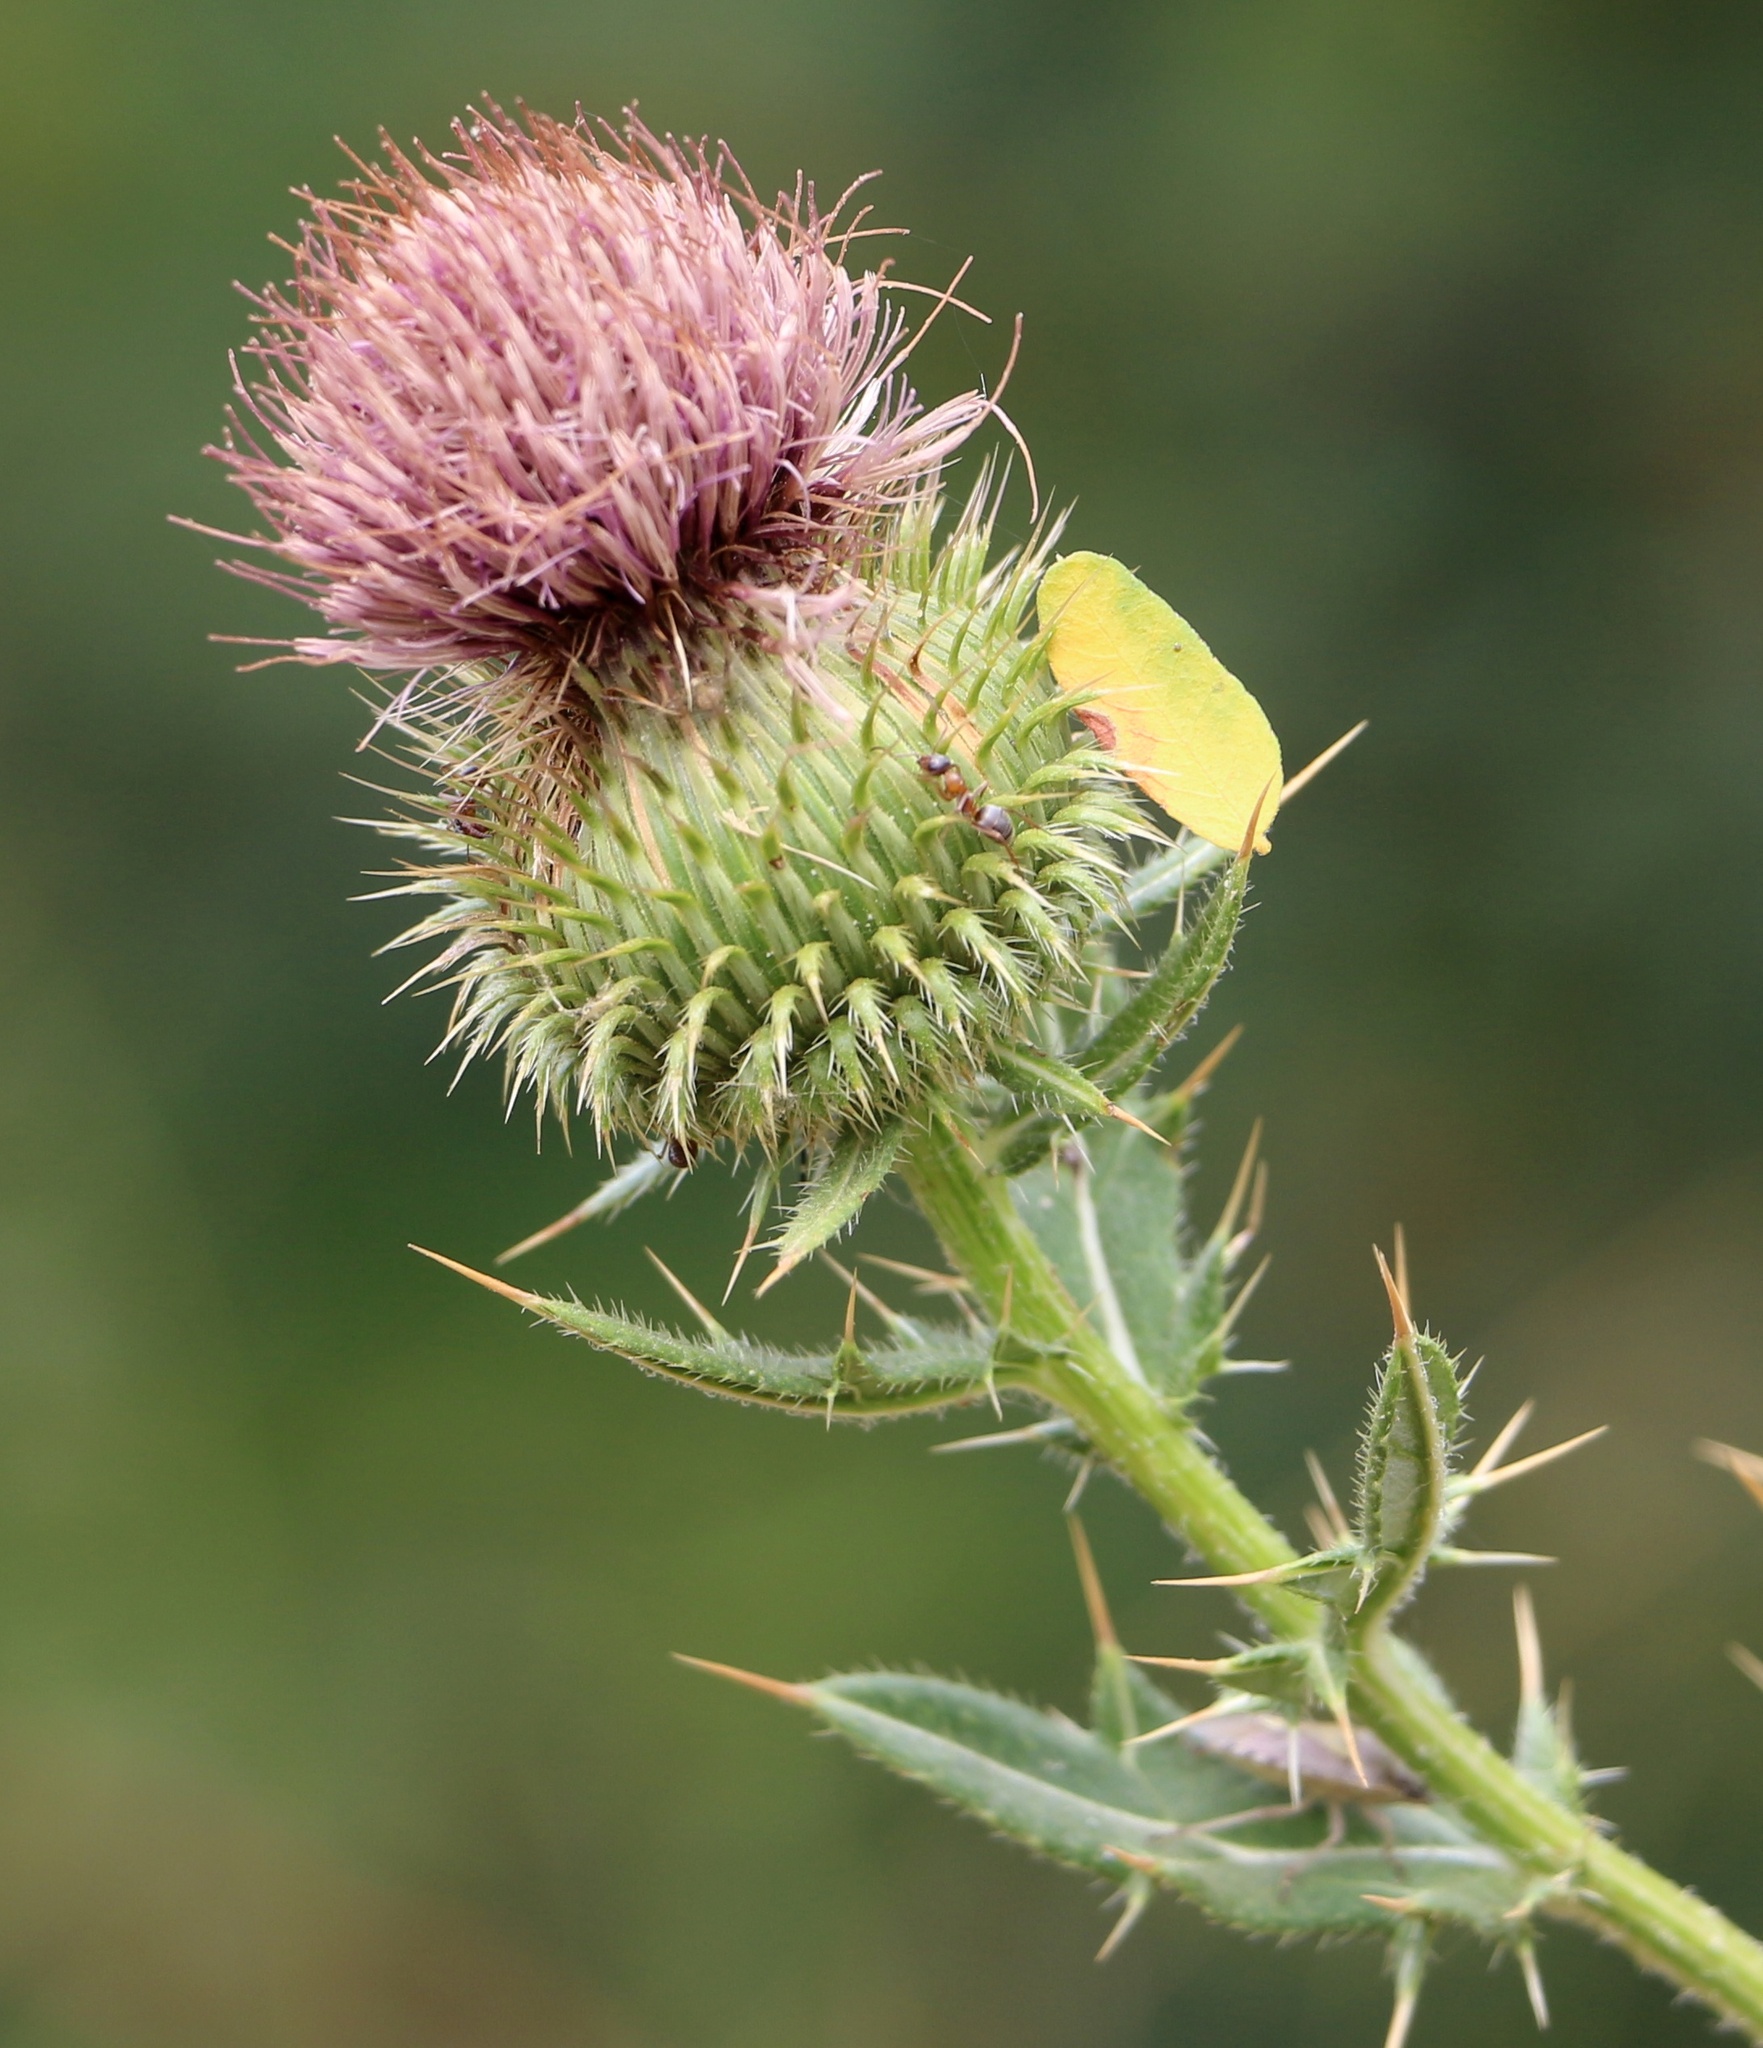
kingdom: Plantae
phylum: Tracheophyta
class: Magnoliopsida
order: Asterales
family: Asteraceae
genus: Lophiolepis
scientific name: Lophiolepis ciliata
